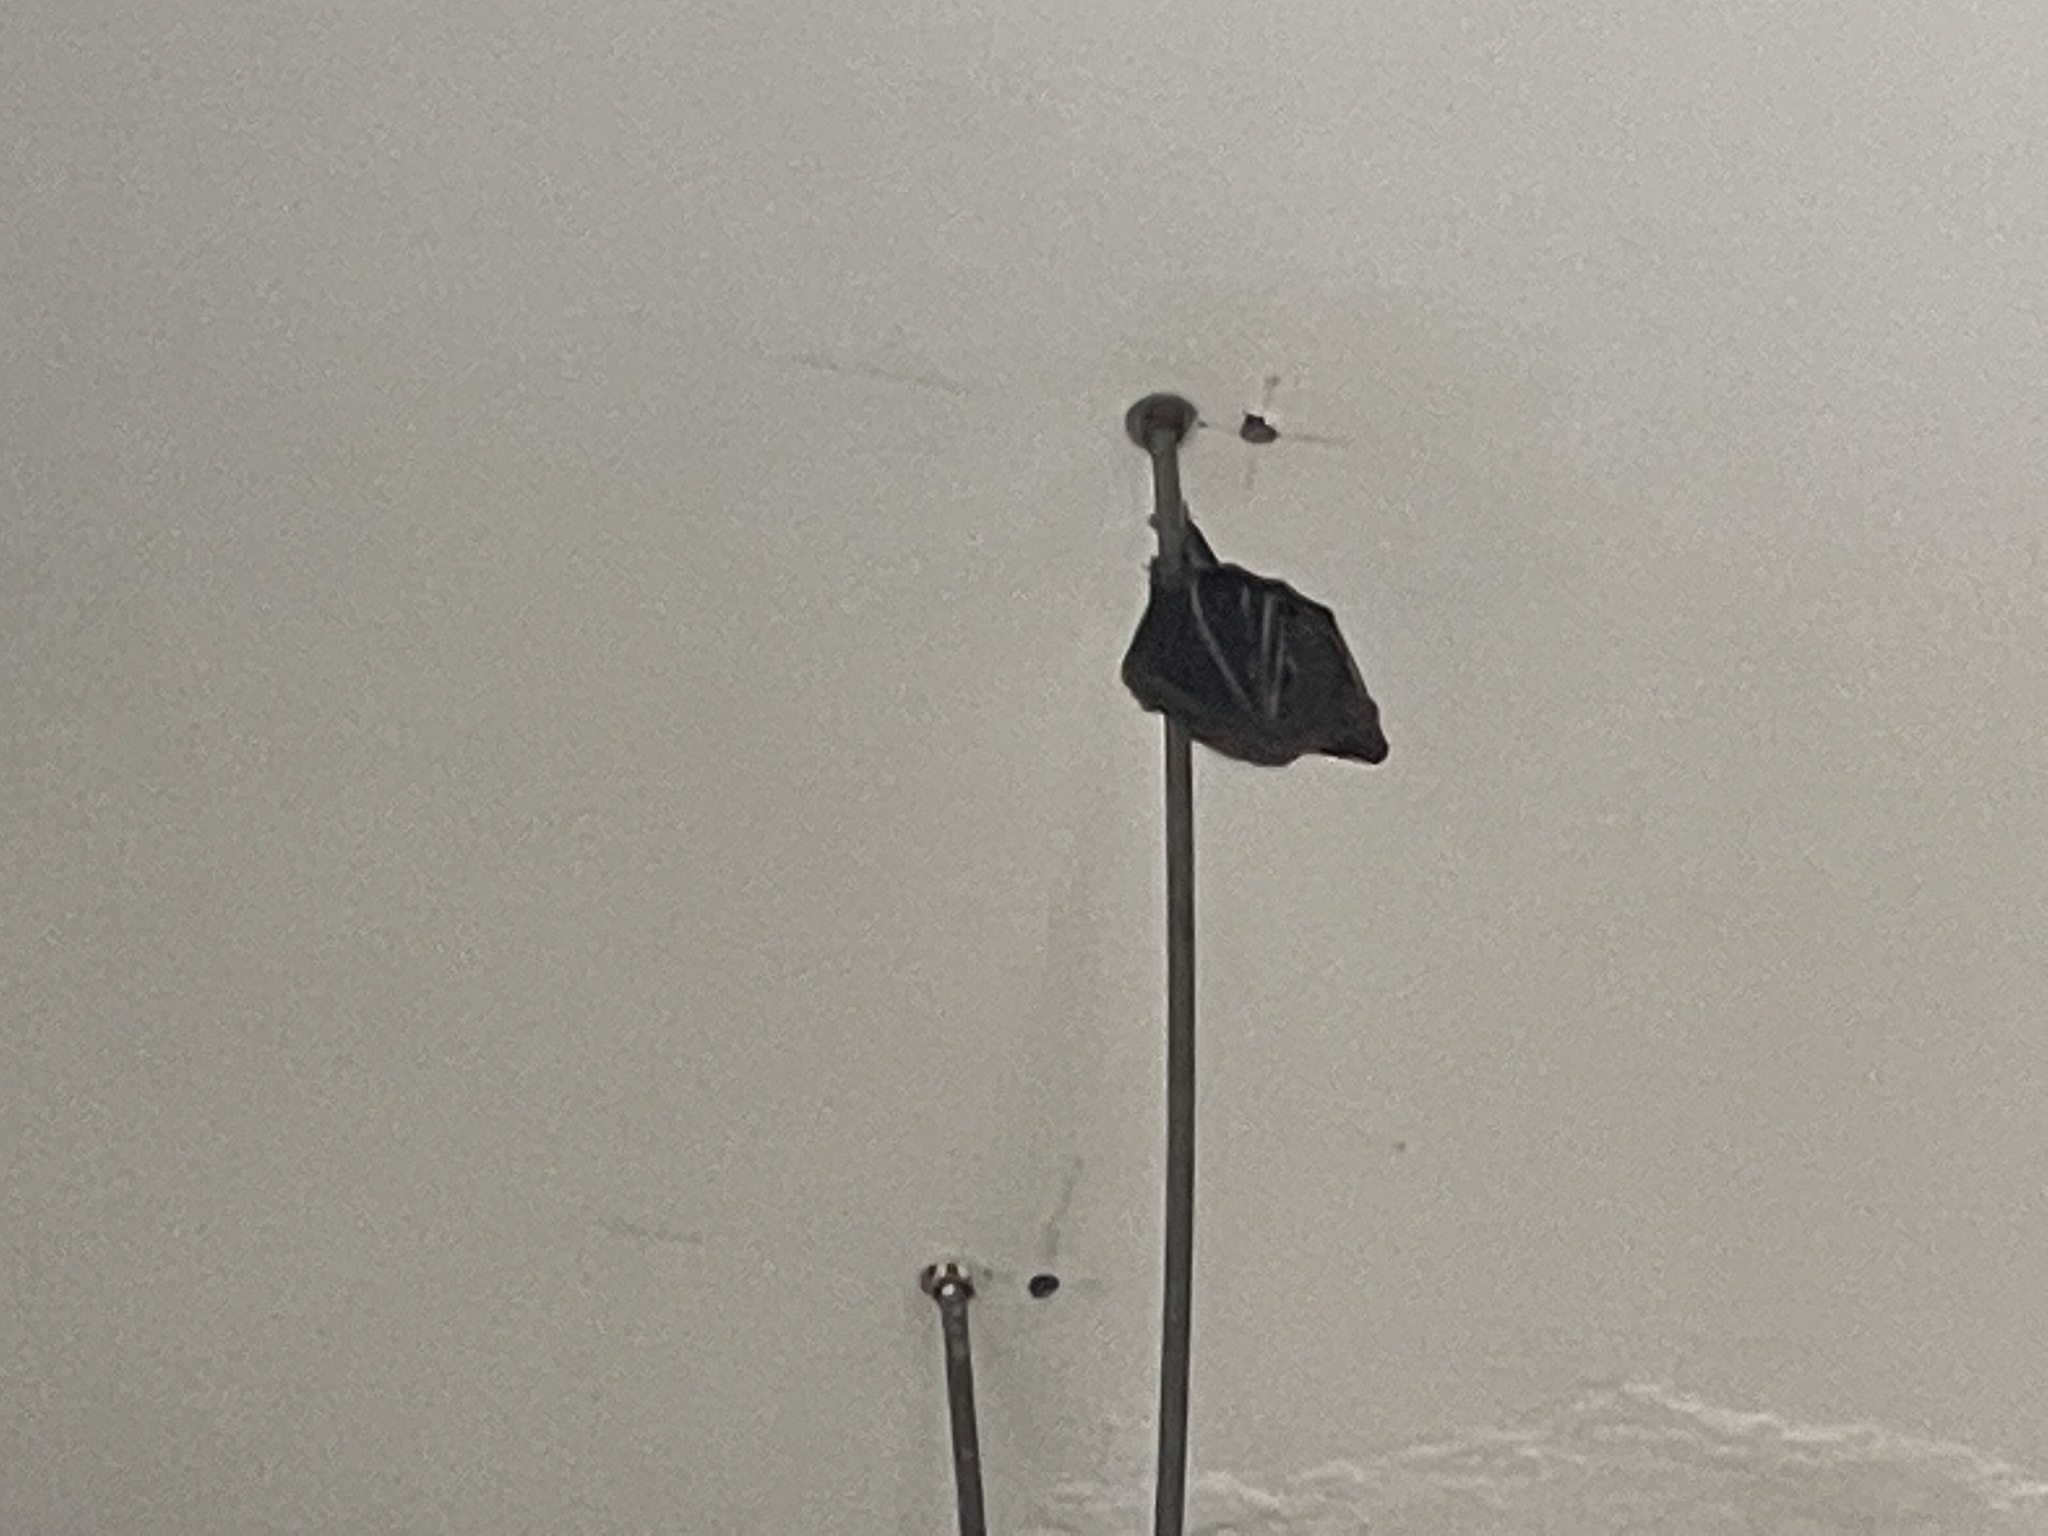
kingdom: Animalia
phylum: Chordata
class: Mammalia
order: Chiroptera
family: Pteropodidae
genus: Cynopterus
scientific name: Cynopterus sphinx
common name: Greater short-nosed fruit bat
